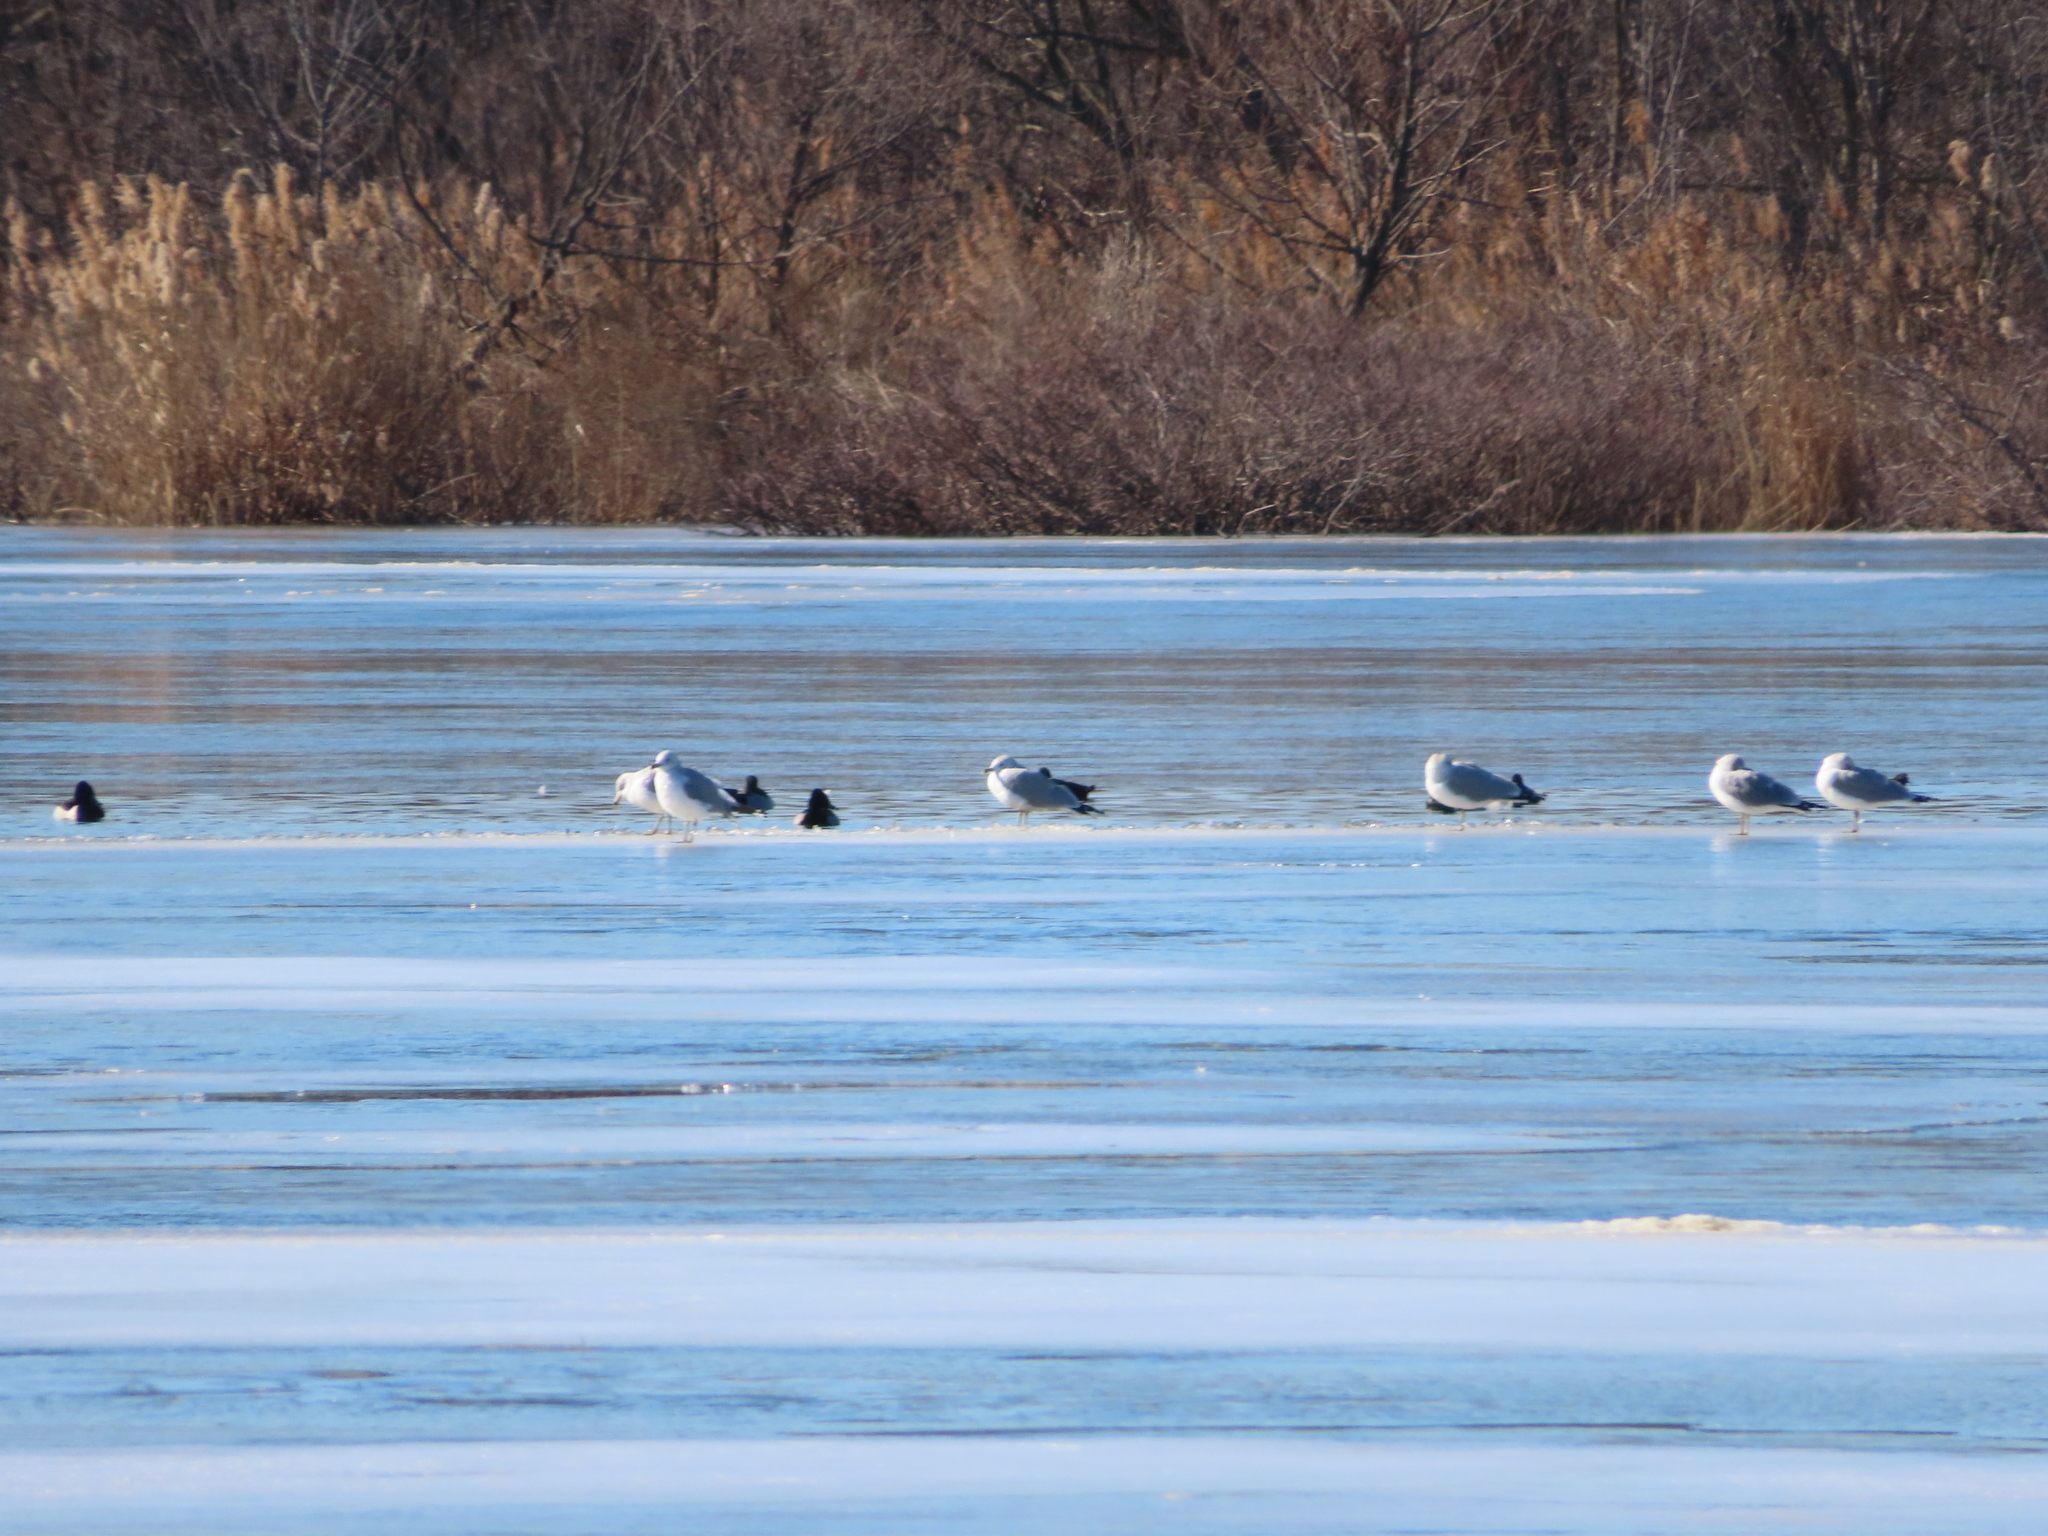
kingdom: Animalia
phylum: Chordata
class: Aves
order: Anseriformes
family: Anatidae
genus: Aythya
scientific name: Aythya collaris
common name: Ring-necked duck
